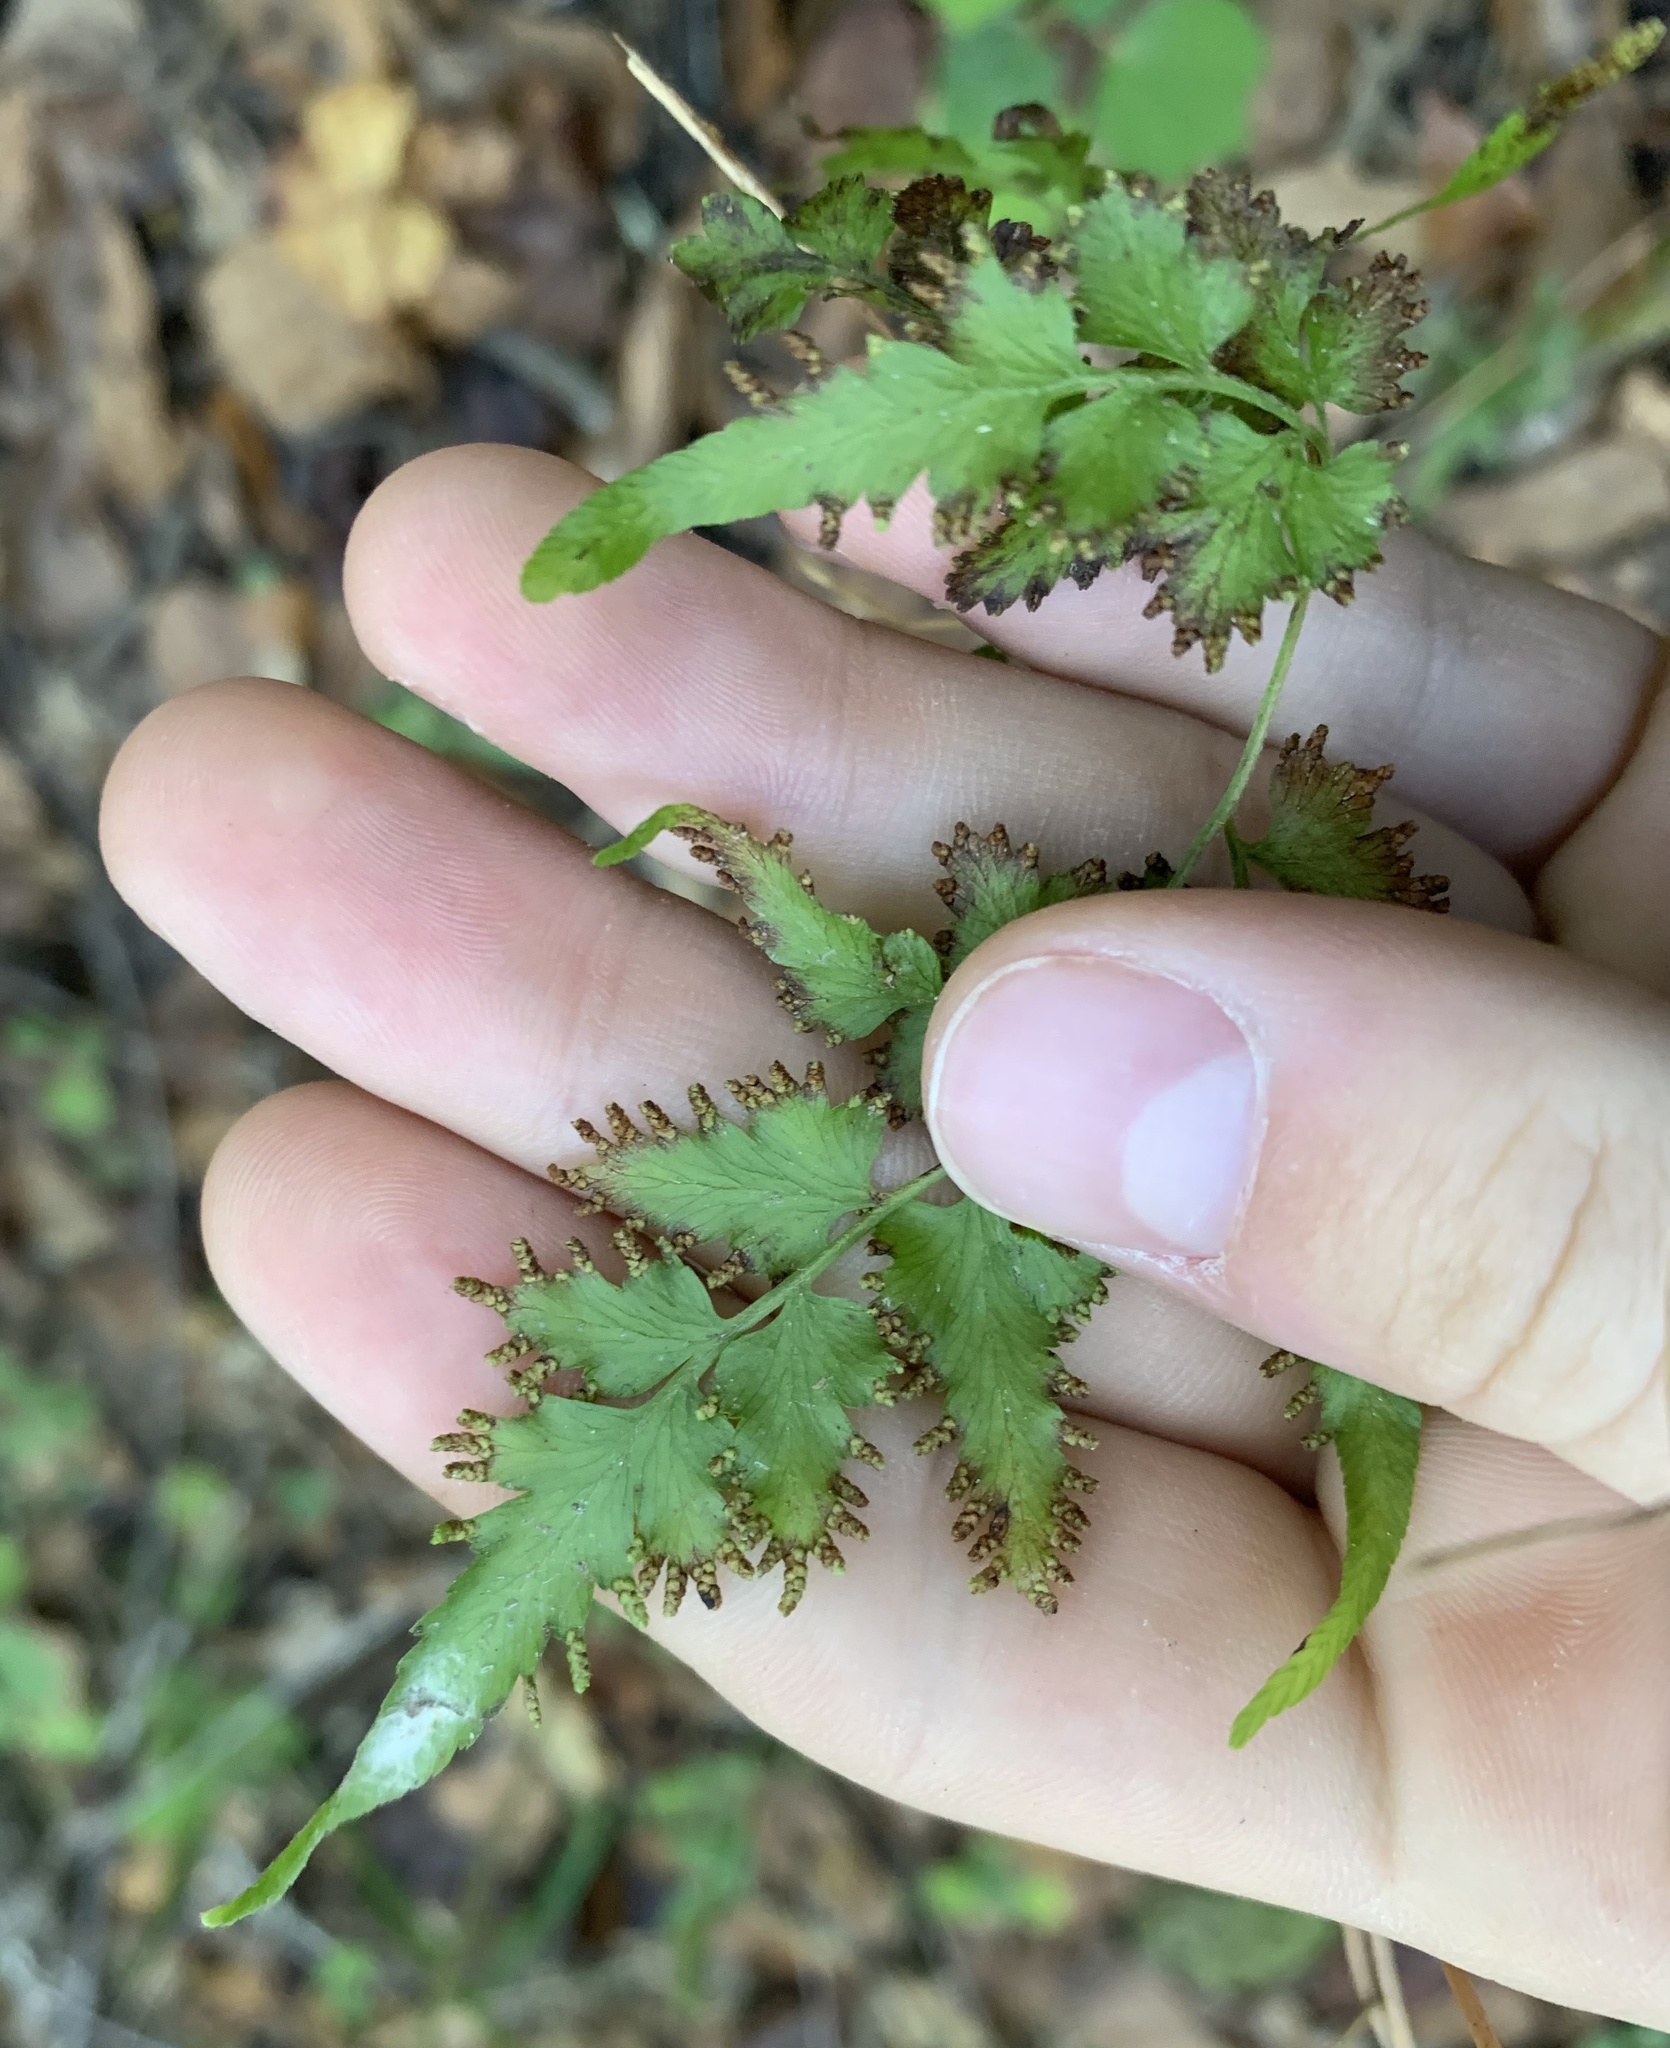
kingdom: Plantae
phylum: Tracheophyta
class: Polypodiopsida
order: Schizaeales
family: Lygodiaceae
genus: Lygodium
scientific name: Lygodium japonicum
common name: Japanese climbing fern
